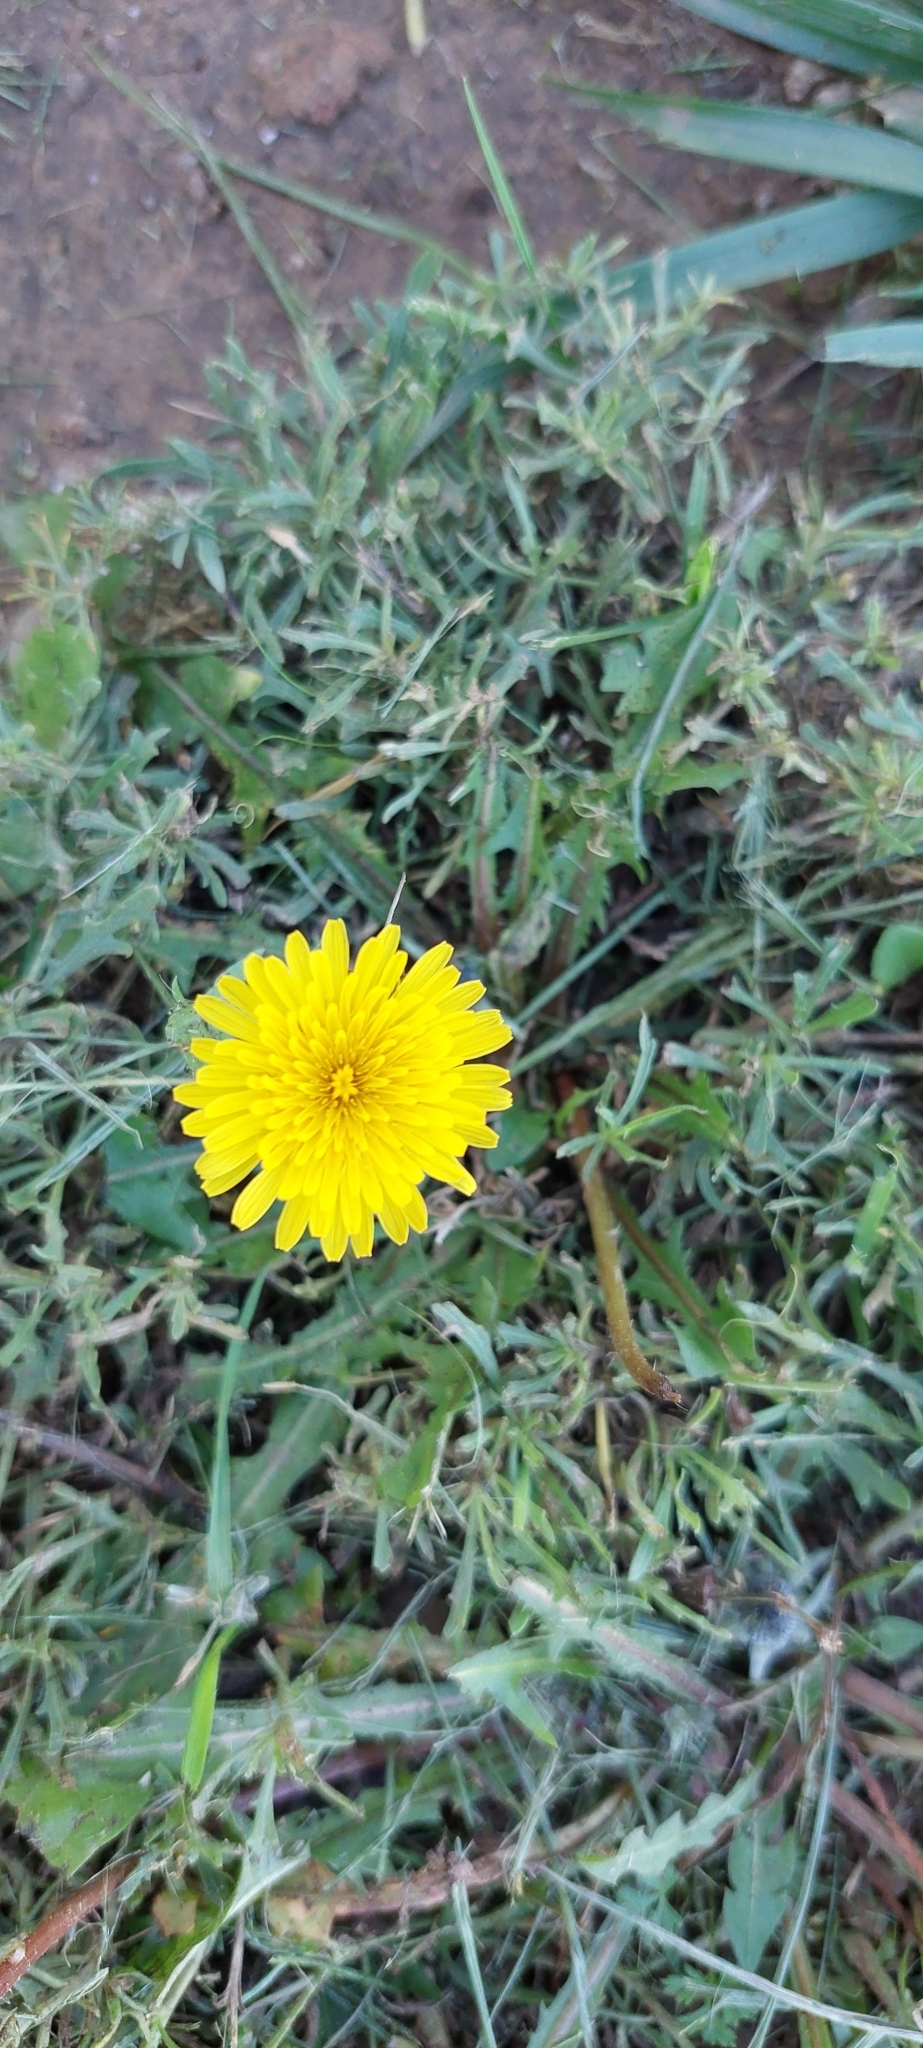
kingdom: Plantae
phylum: Tracheophyta
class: Magnoliopsida
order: Asterales
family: Asteraceae
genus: Taraxacum
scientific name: Taraxacum officinale
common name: Common dandelion
